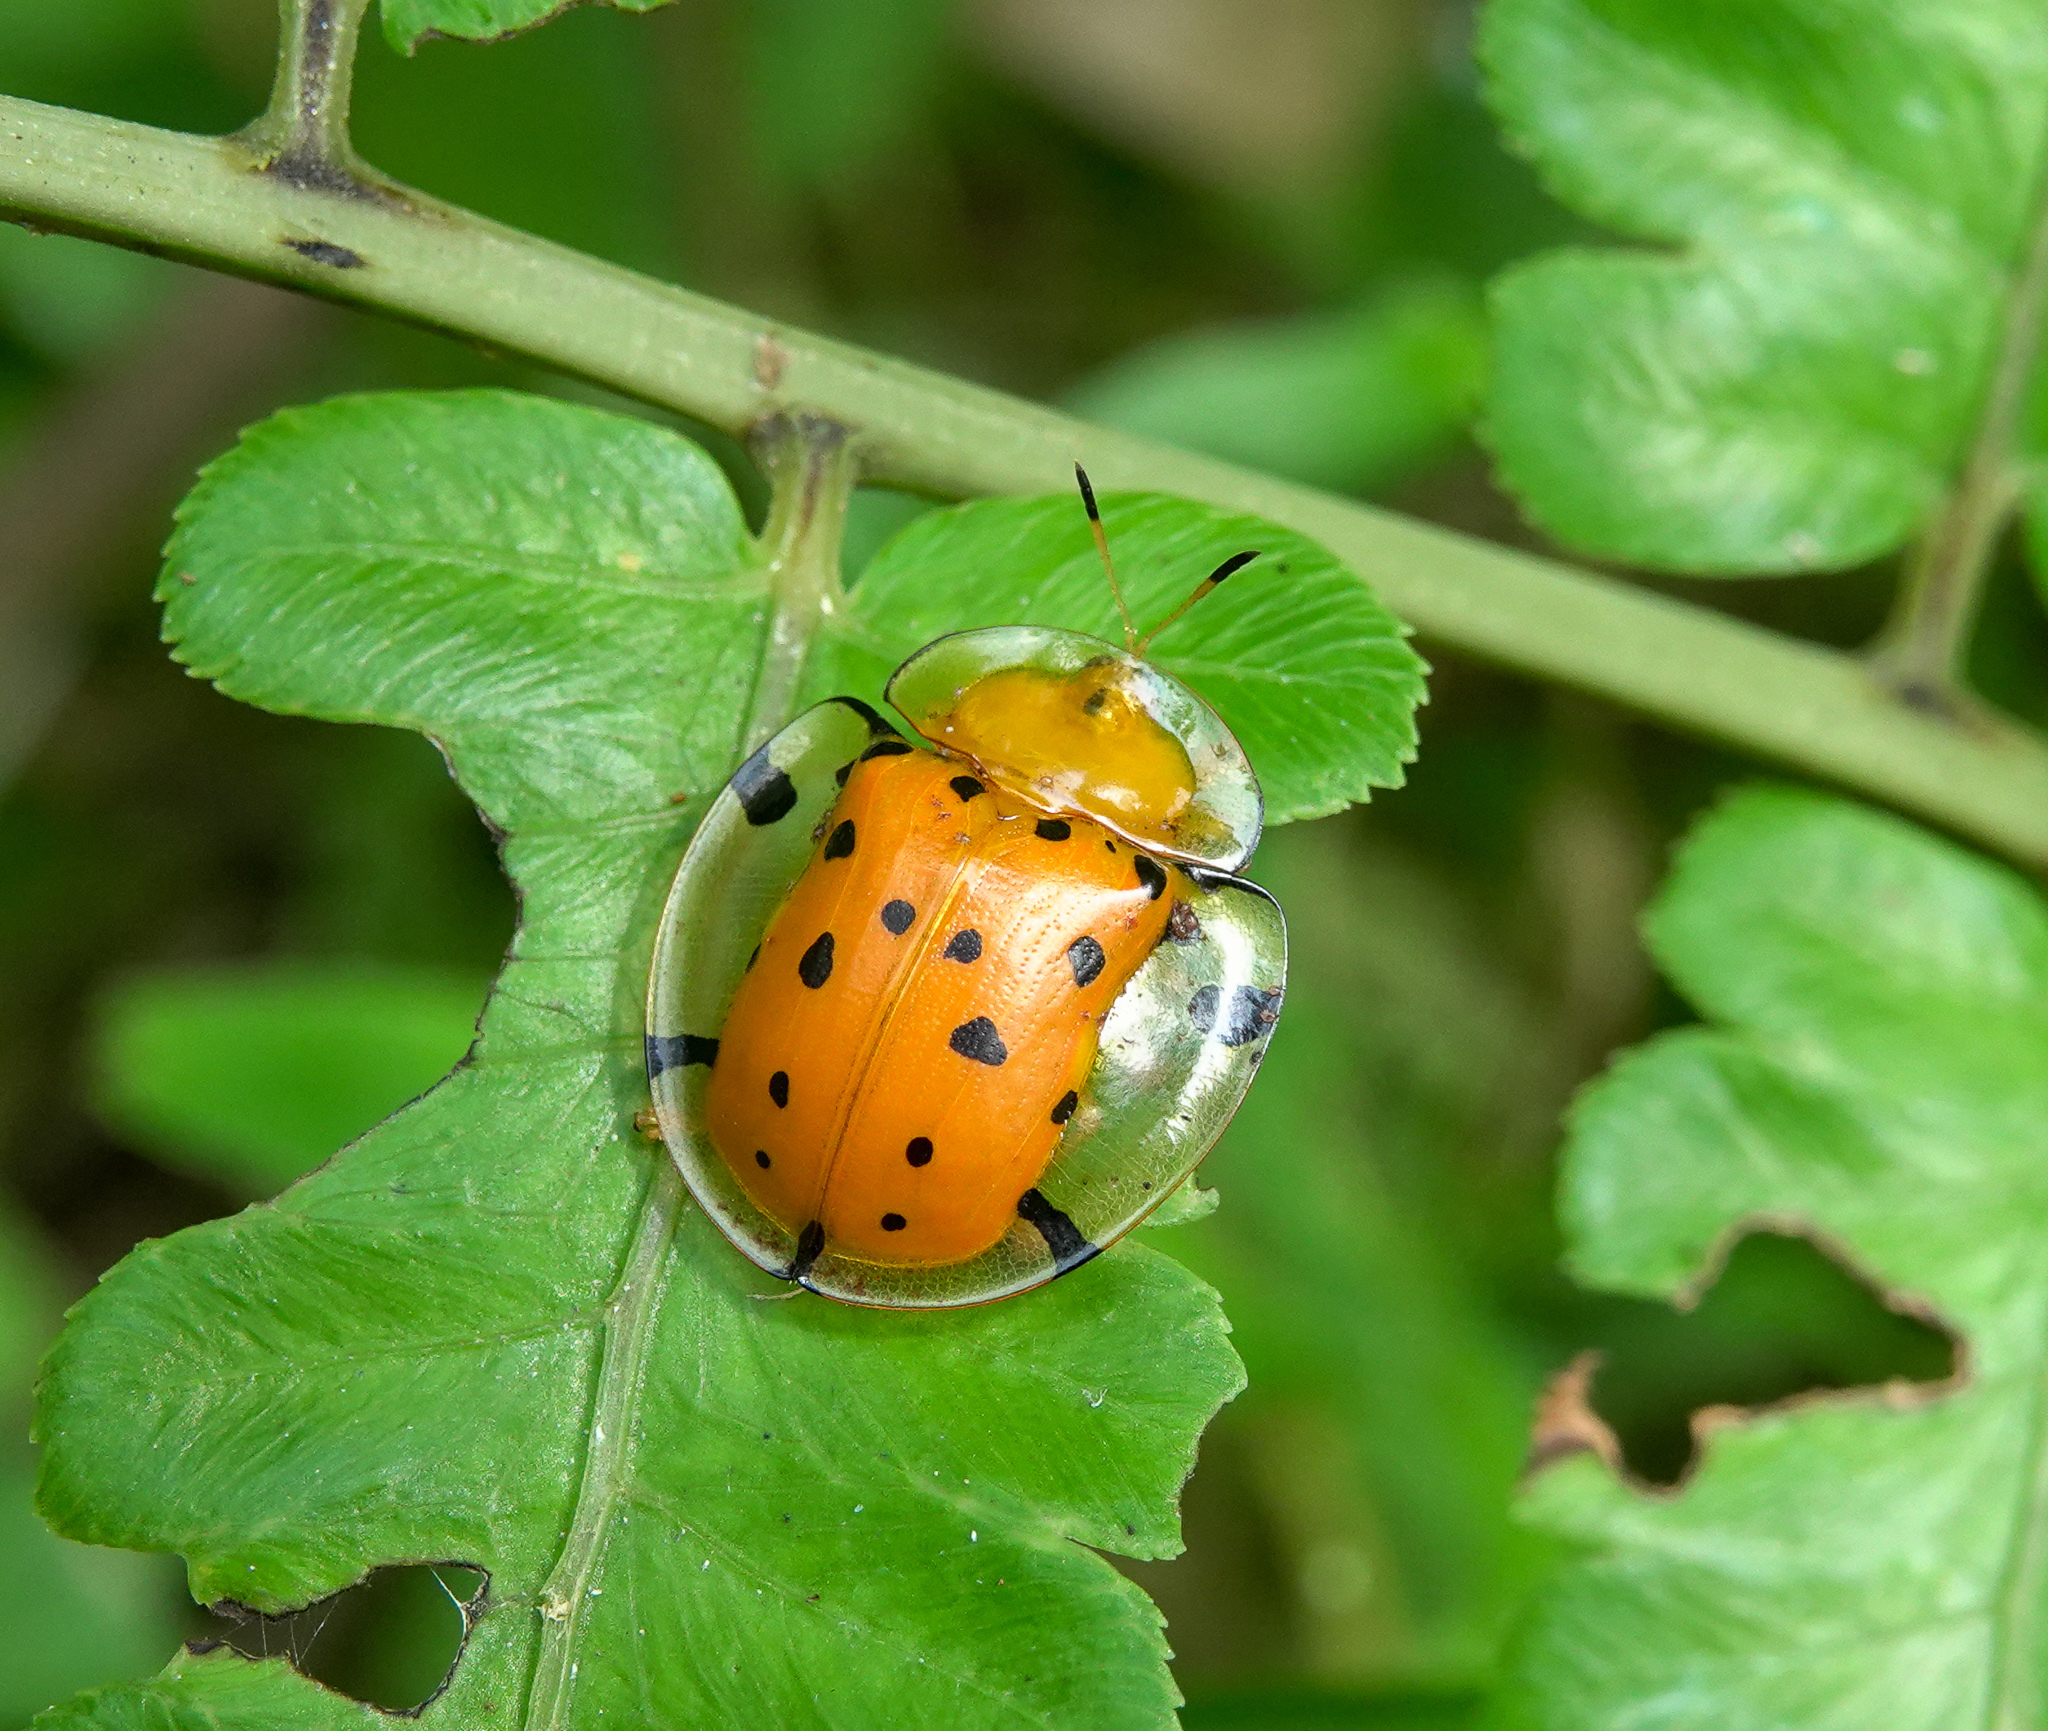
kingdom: Animalia
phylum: Arthropoda
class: Insecta
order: Coleoptera
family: Chrysomelidae
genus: Aspidimorpha
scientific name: Aspidimorpha miliaris
